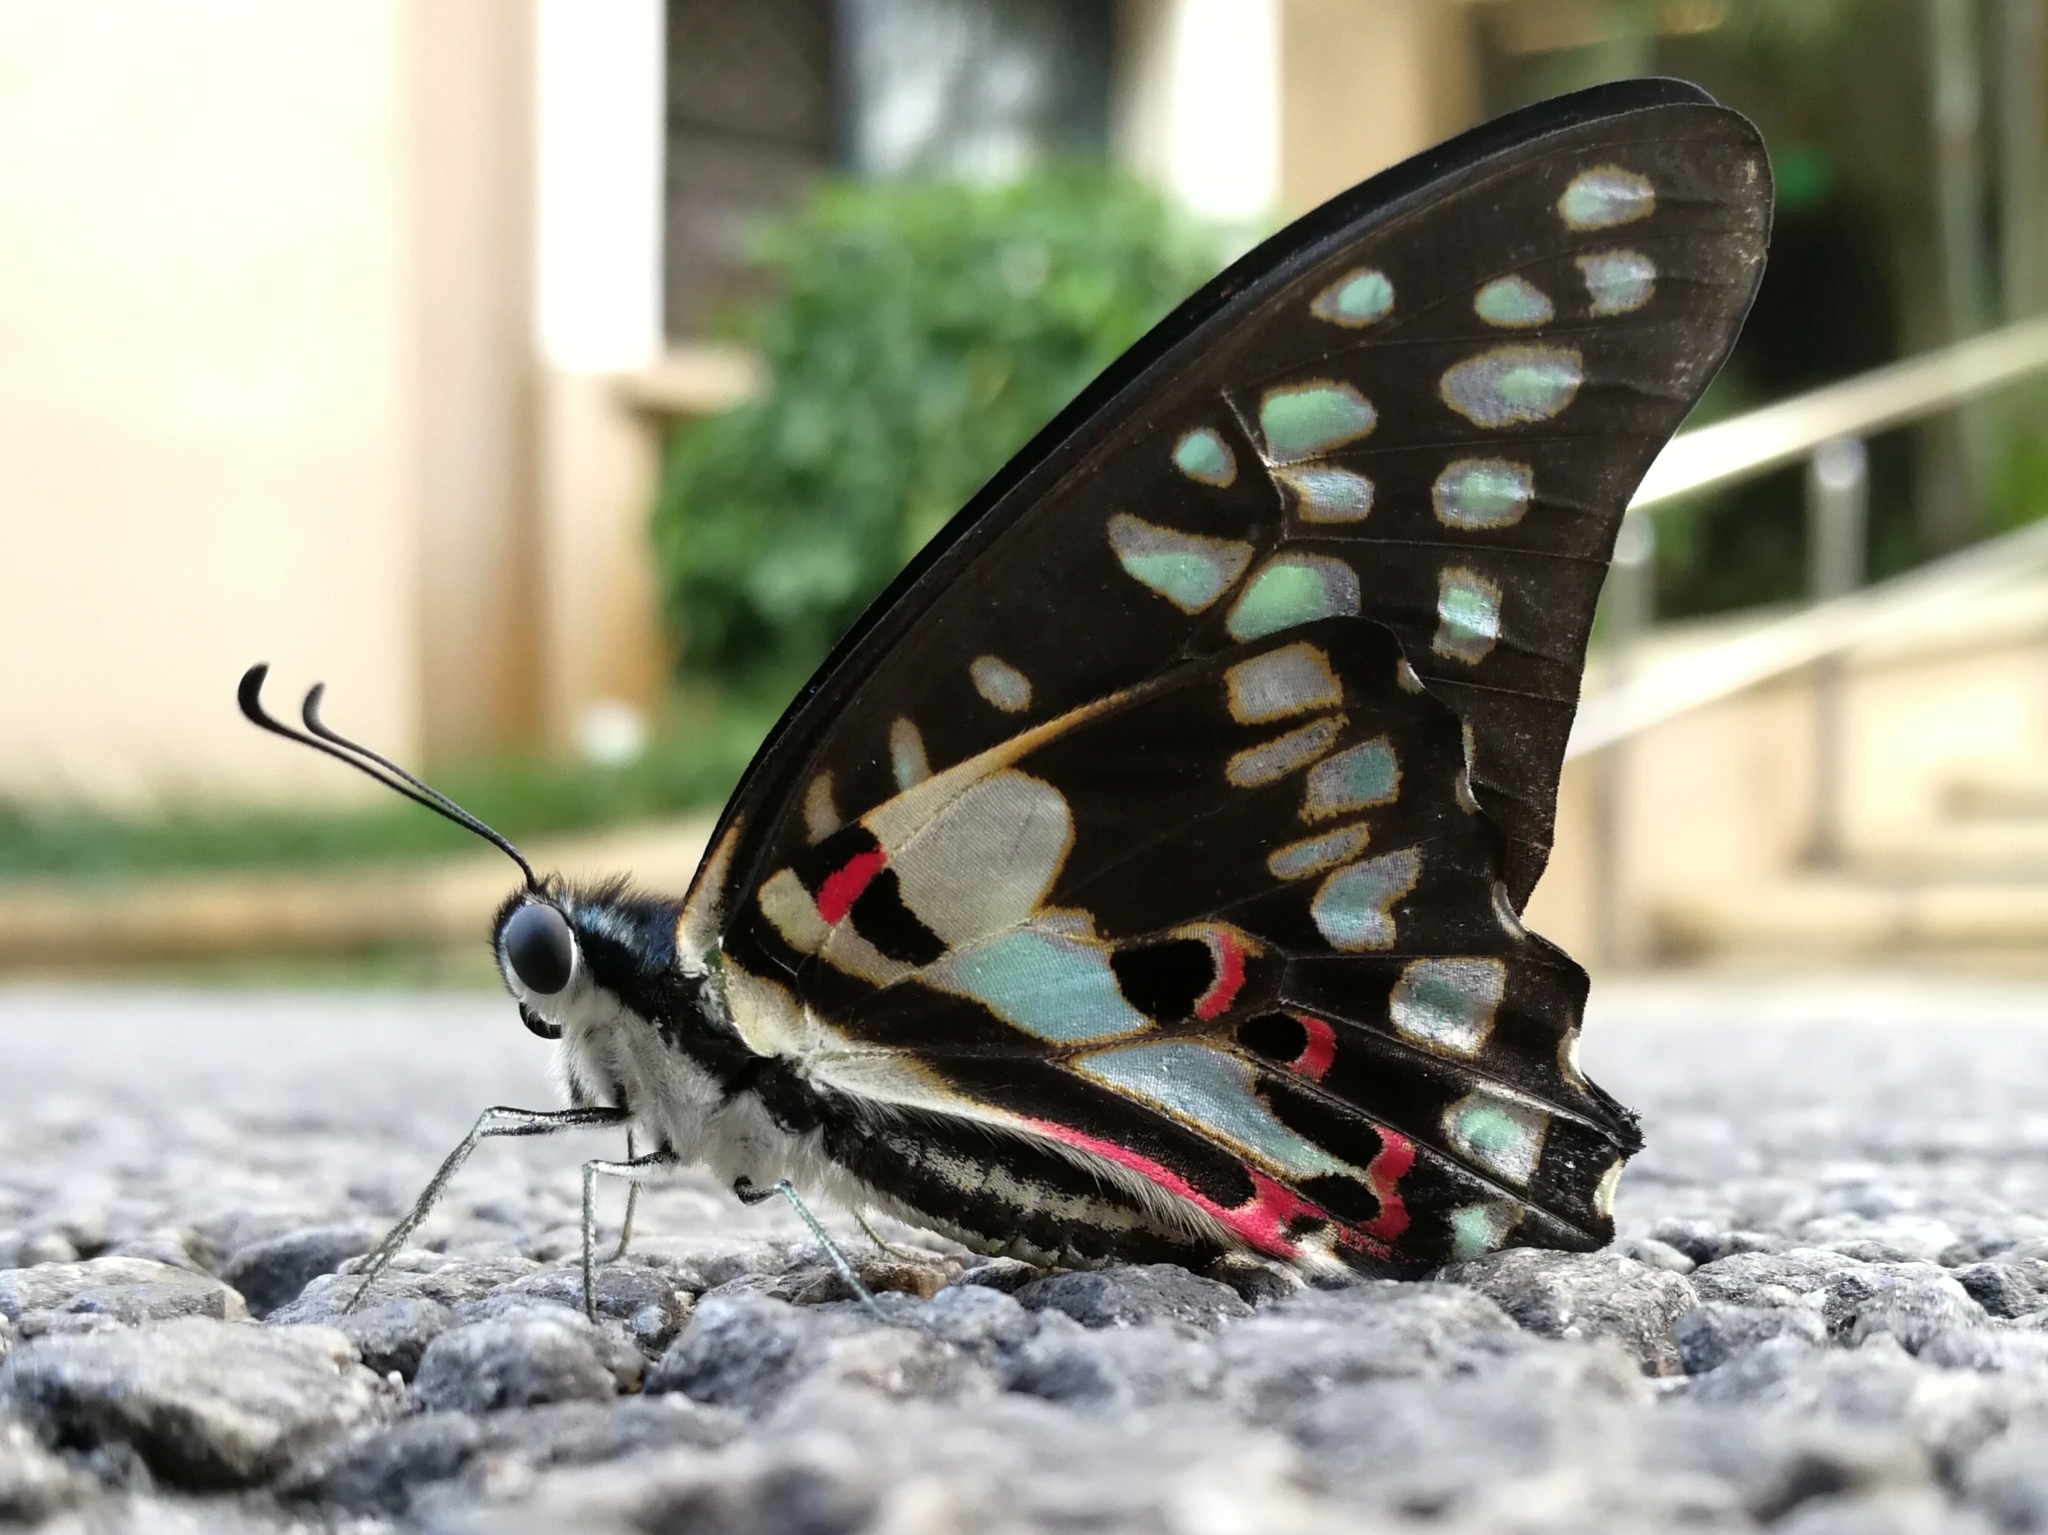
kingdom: Animalia
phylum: Arthropoda
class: Insecta
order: Lepidoptera
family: Papilionidae
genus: Graphium
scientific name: Graphium doson
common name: Common jay
